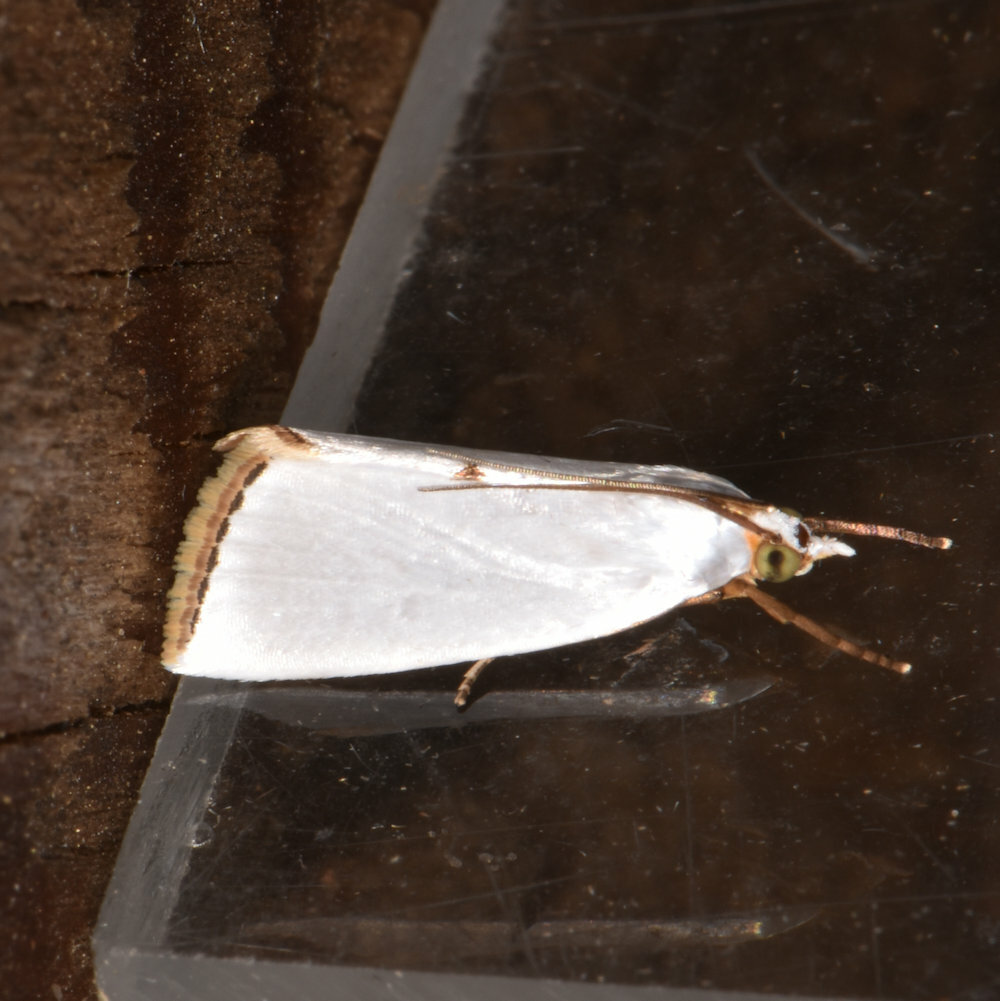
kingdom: Animalia
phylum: Arthropoda
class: Insecta
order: Lepidoptera
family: Crambidae
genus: Argyria
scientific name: Argyria nivalis
